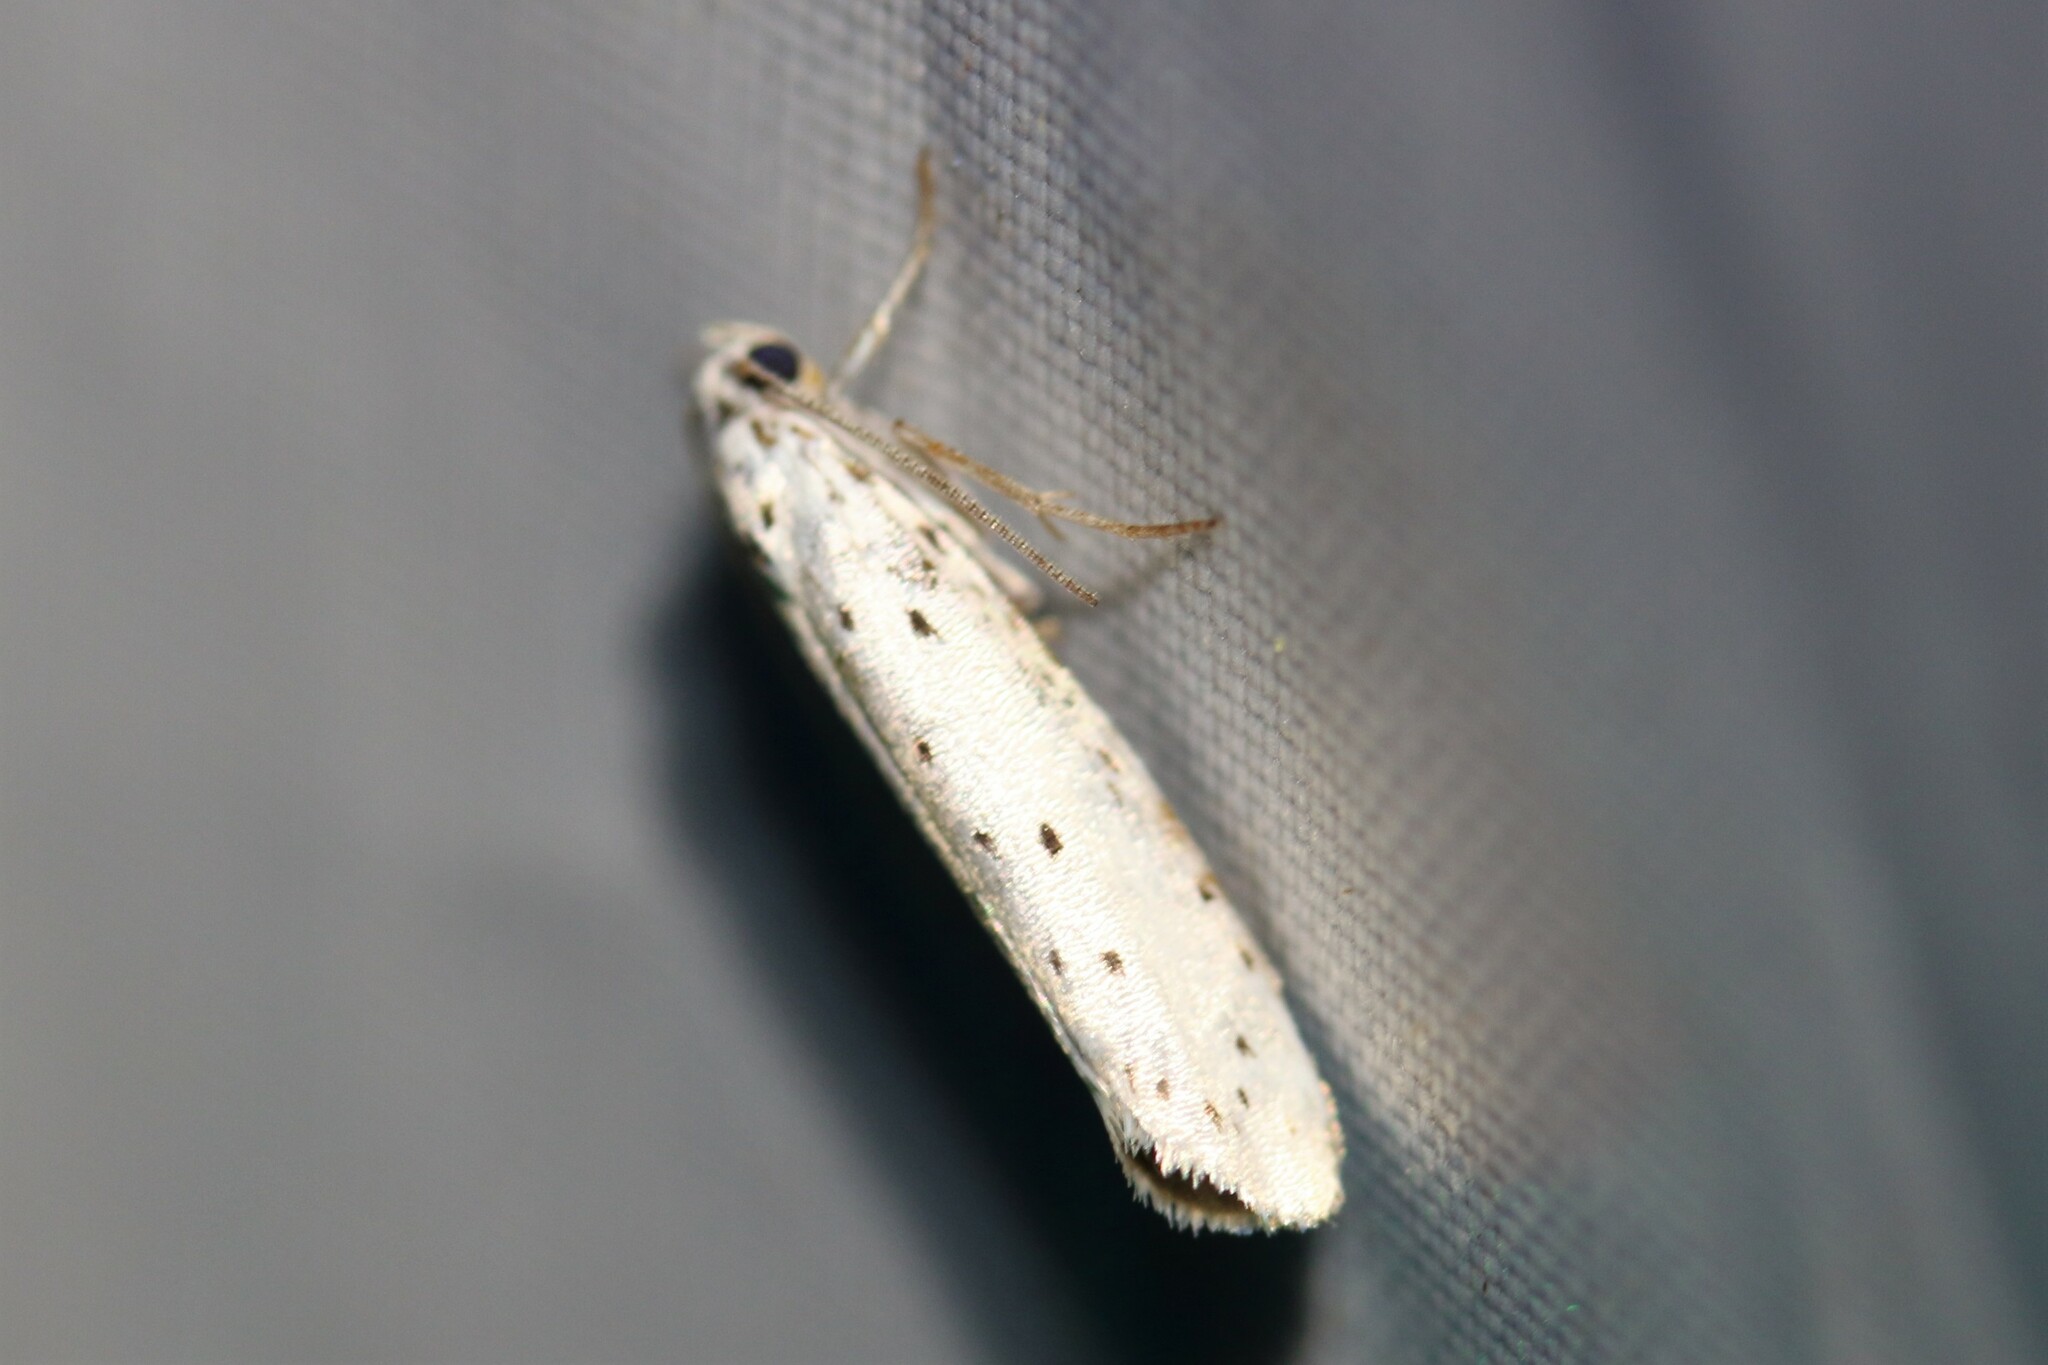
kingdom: Animalia
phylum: Arthropoda
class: Insecta
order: Lepidoptera
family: Yponomeutidae
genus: Yponomeuta
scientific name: Yponomeuta
